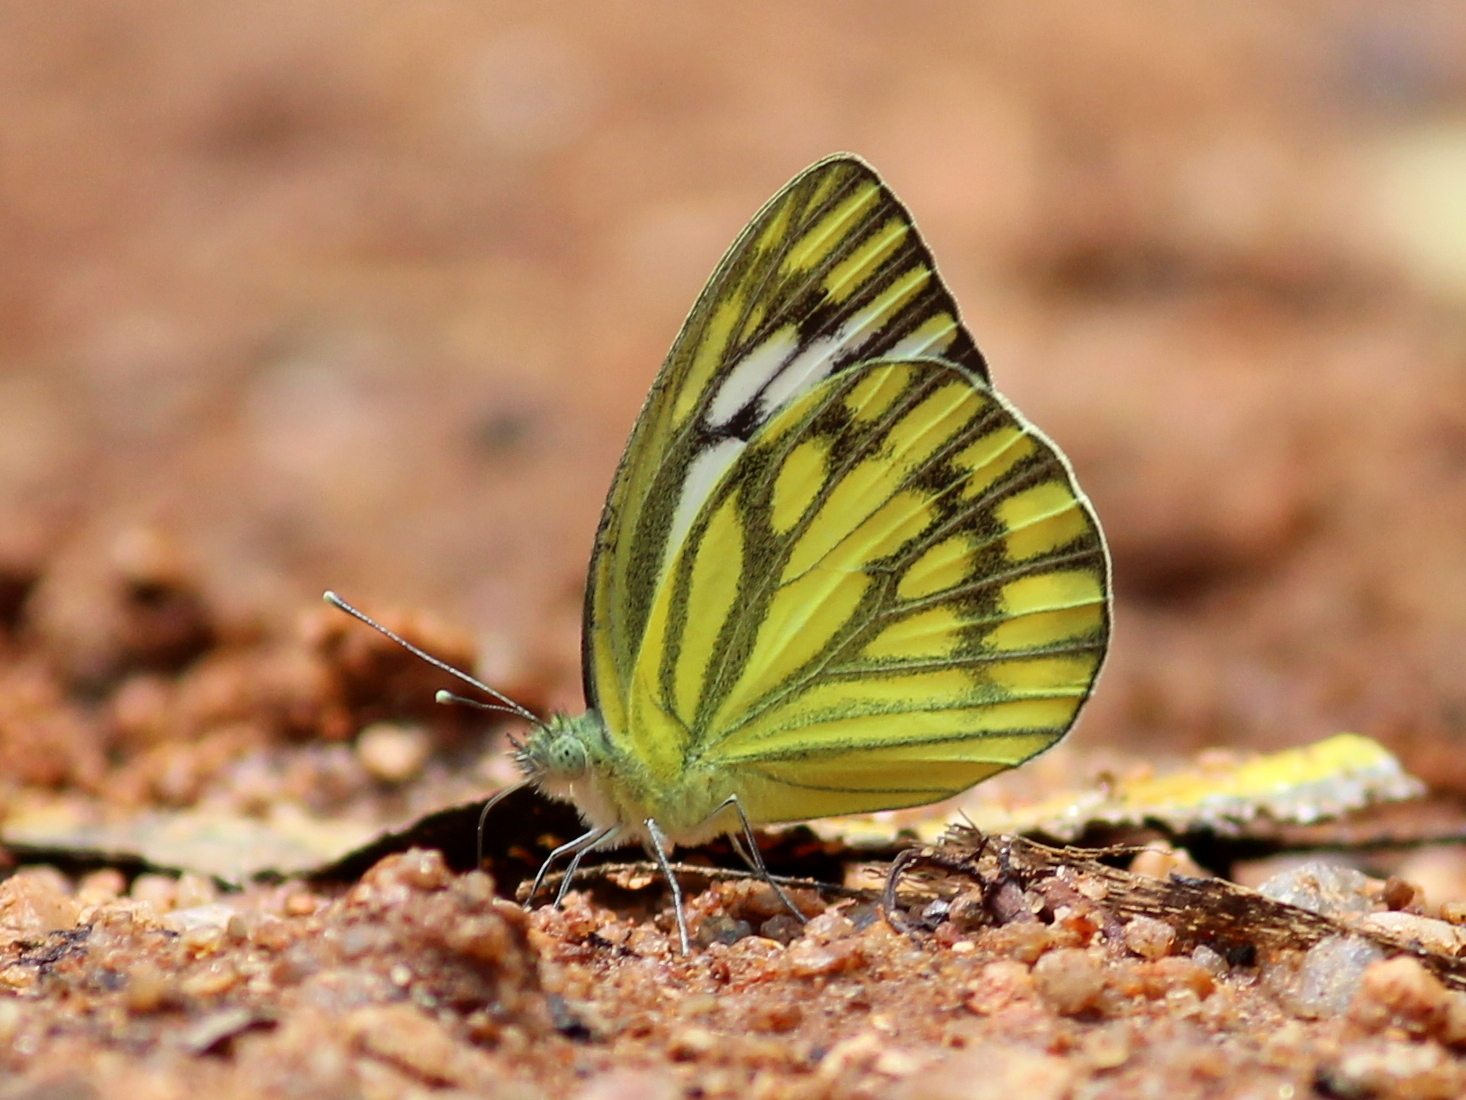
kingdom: Animalia
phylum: Arthropoda
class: Insecta
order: Lepidoptera
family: Pieridae
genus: Cepora
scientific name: Cepora nerissa
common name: Common gull
